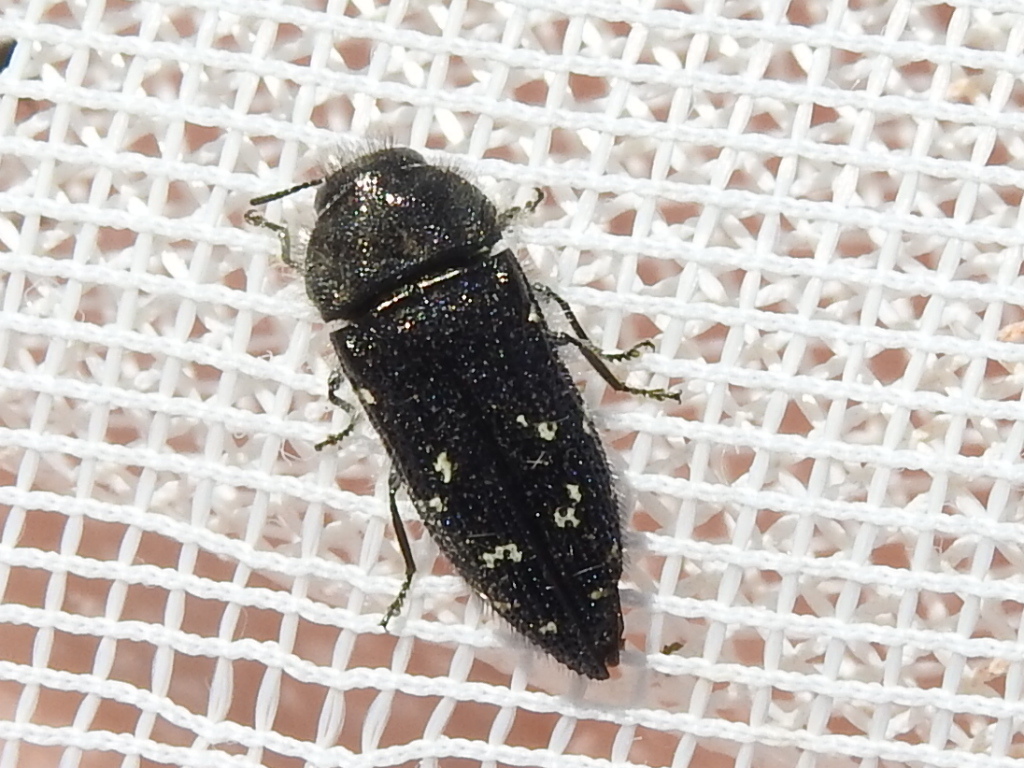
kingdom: Animalia
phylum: Arthropoda
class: Insecta
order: Coleoptera
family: Buprestidae
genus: Acmaeodera
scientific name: Acmaeodera ornatoides
